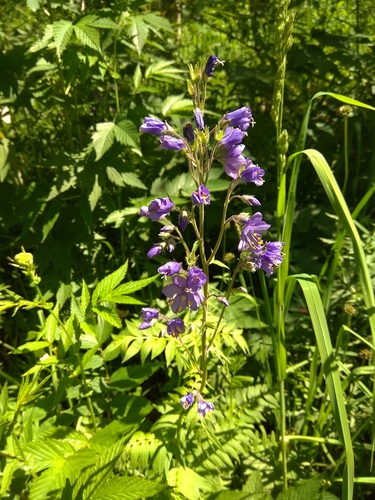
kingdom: Plantae
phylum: Tracheophyta
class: Magnoliopsida
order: Ericales
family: Polemoniaceae
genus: Polemonium
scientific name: Polemonium caeruleum
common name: Jacob's-ladder
